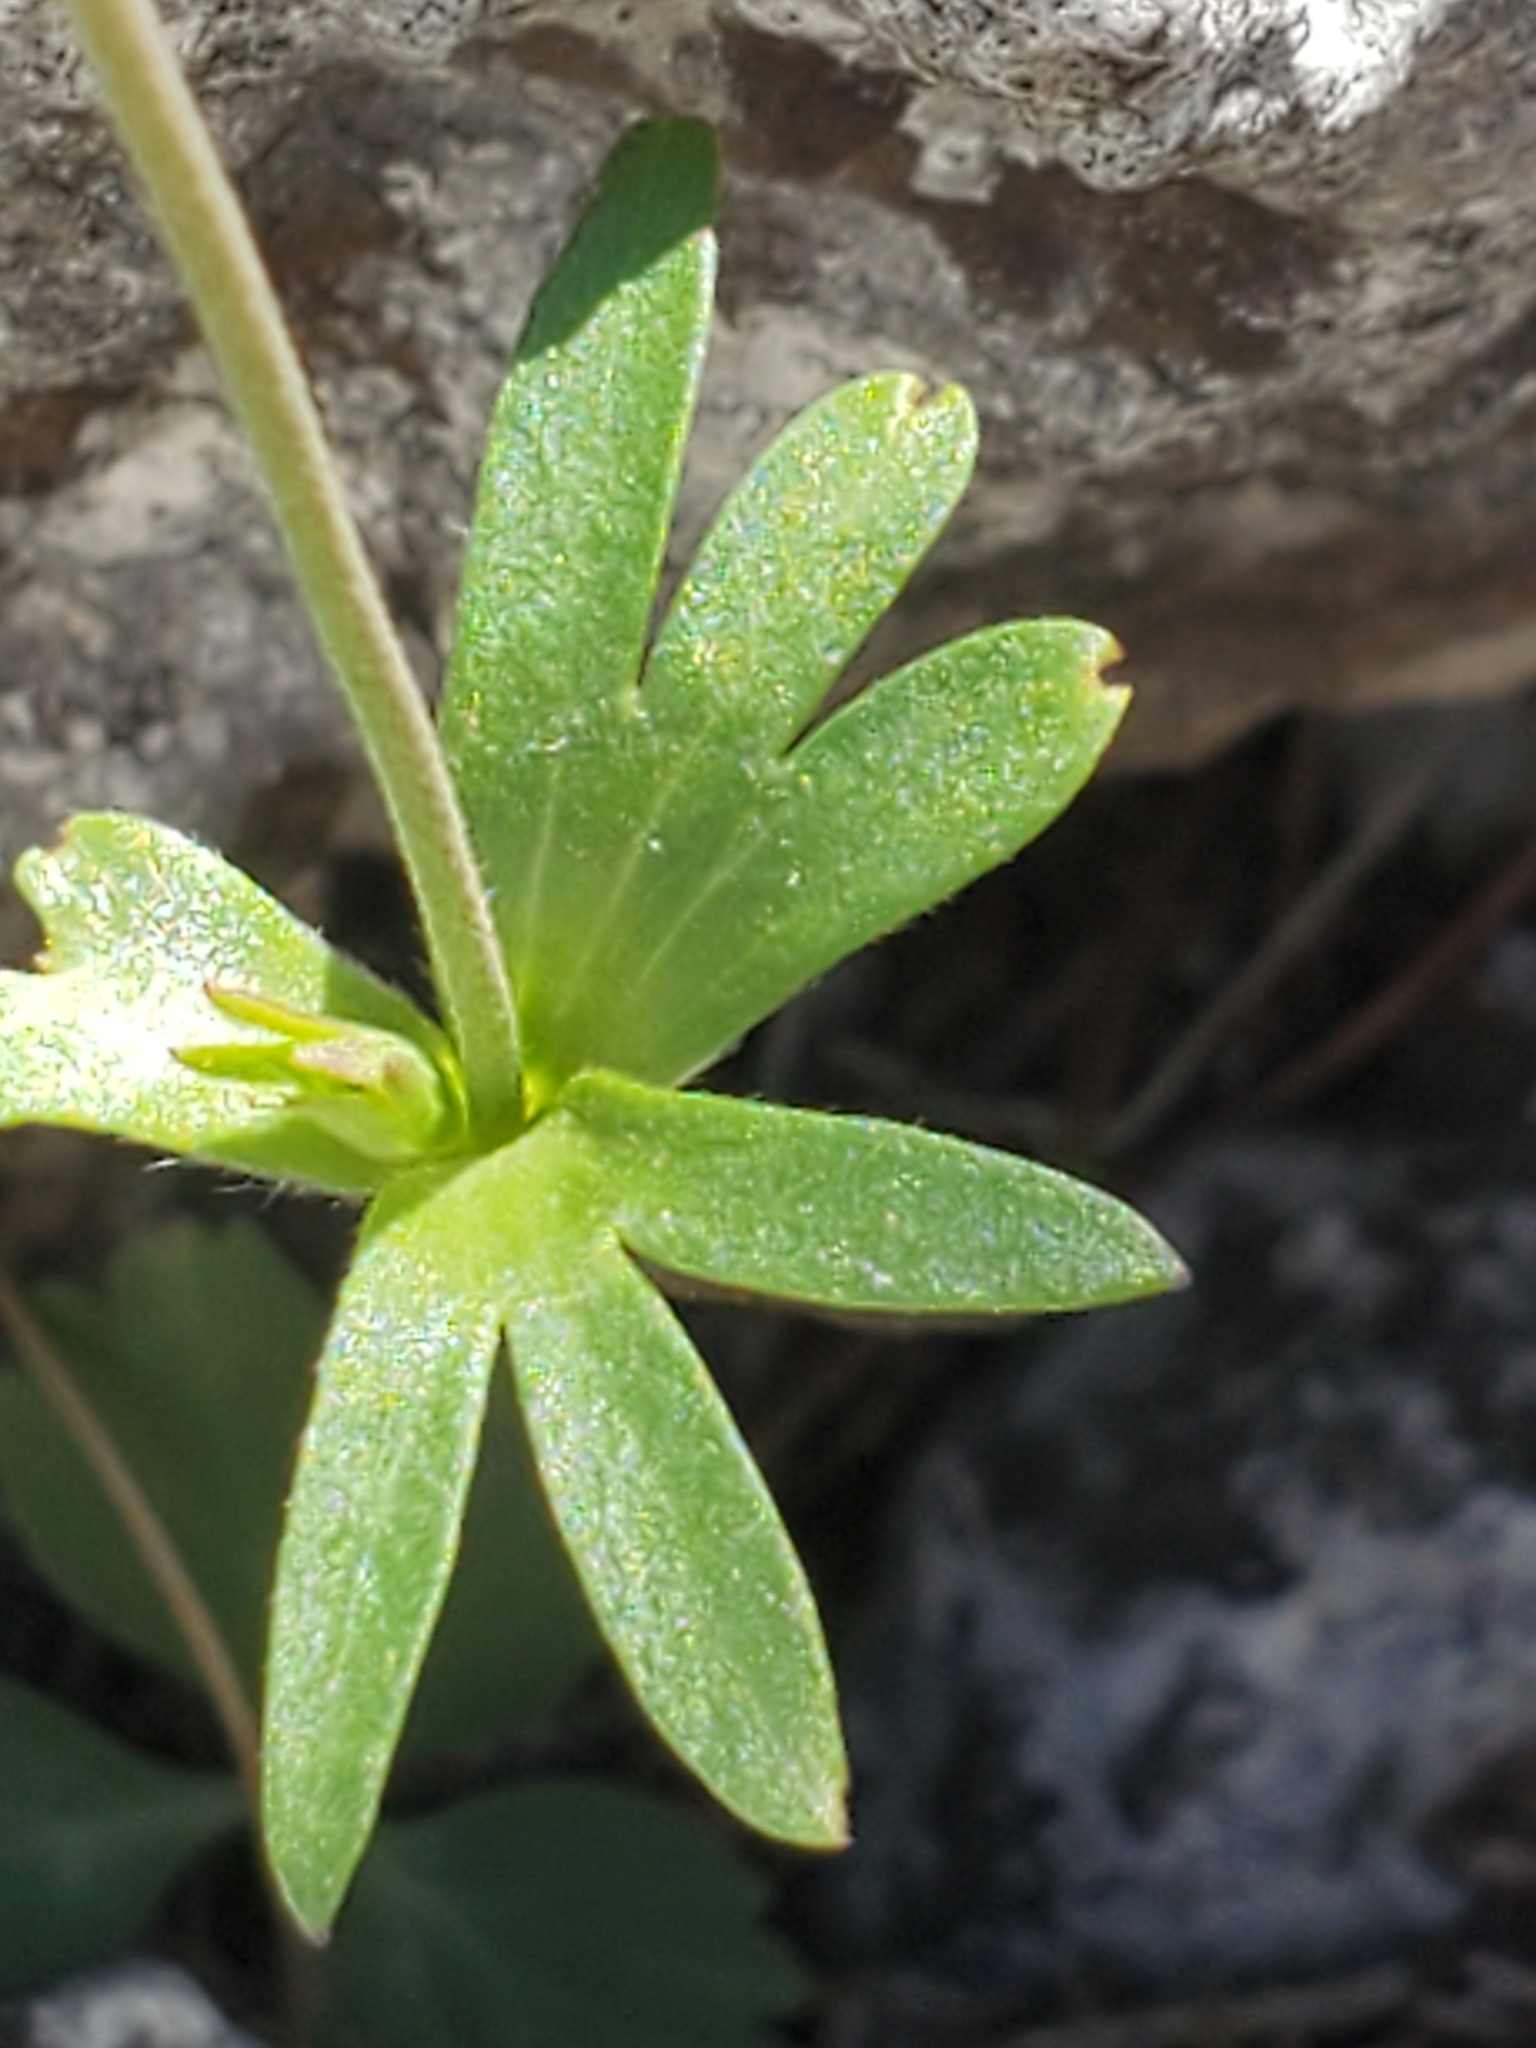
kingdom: Plantae
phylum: Tracheophyta
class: Magnoliopsida
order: Ranunculales
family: Ranunculaceae
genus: Anemone
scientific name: Anemone edwardsiana
